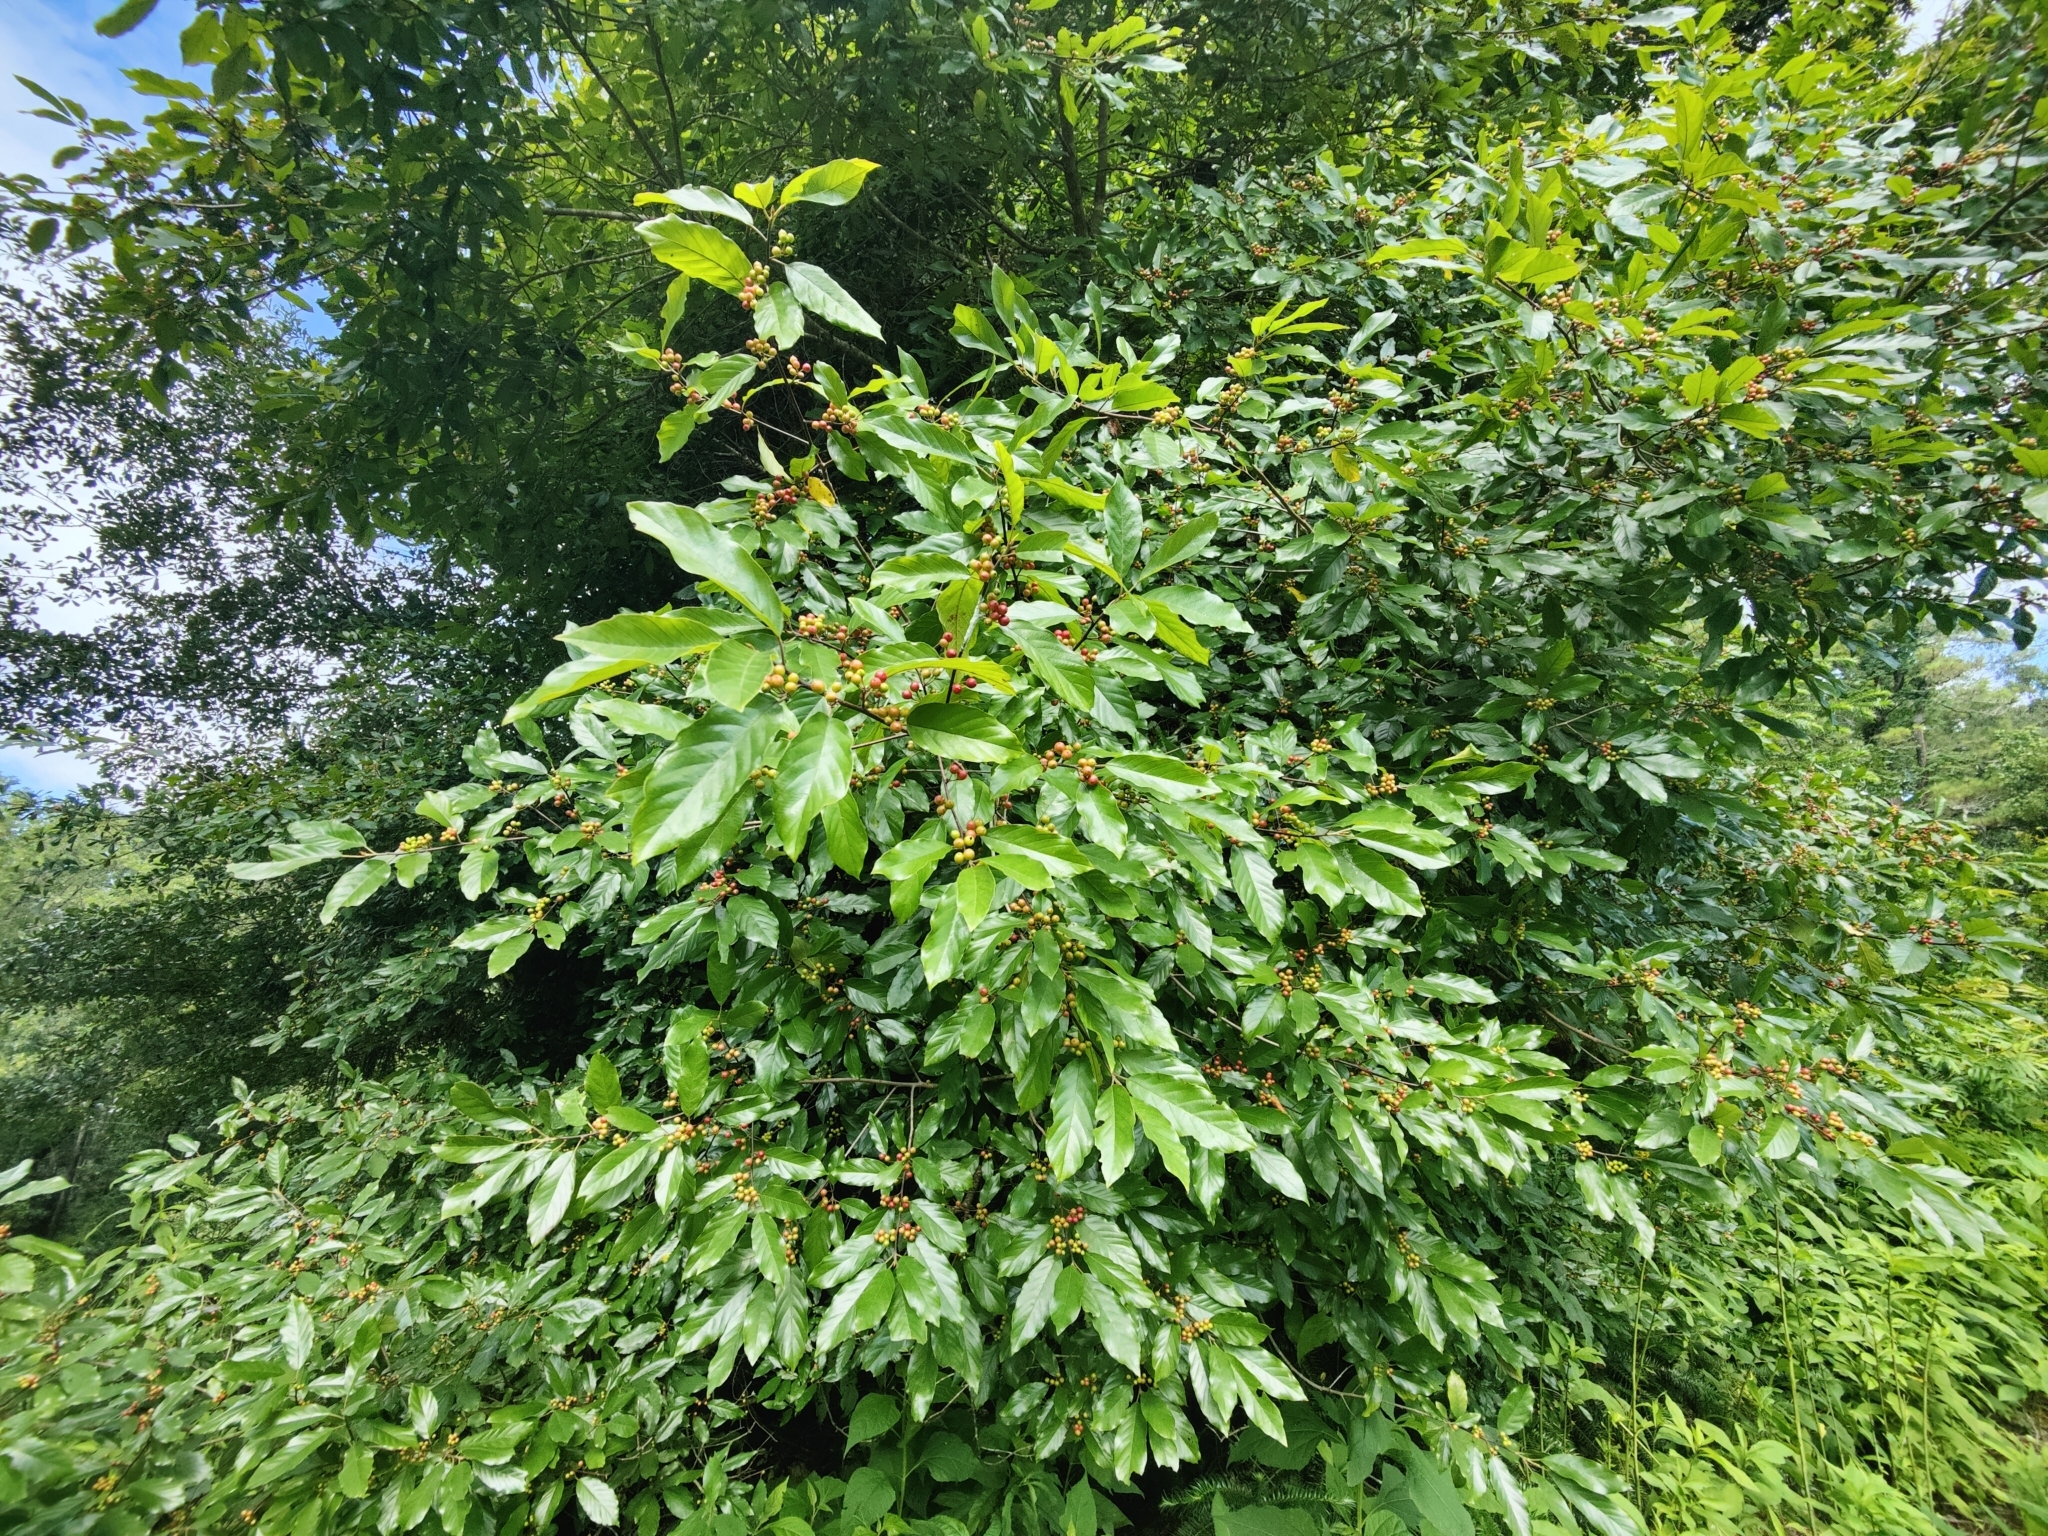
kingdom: Plantae
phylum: Tracheophyta
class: Magnoliopsida
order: Rosales
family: Rhamnaceae
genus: Frangula
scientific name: Frangula caroliniana
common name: Carolina buckthorn
